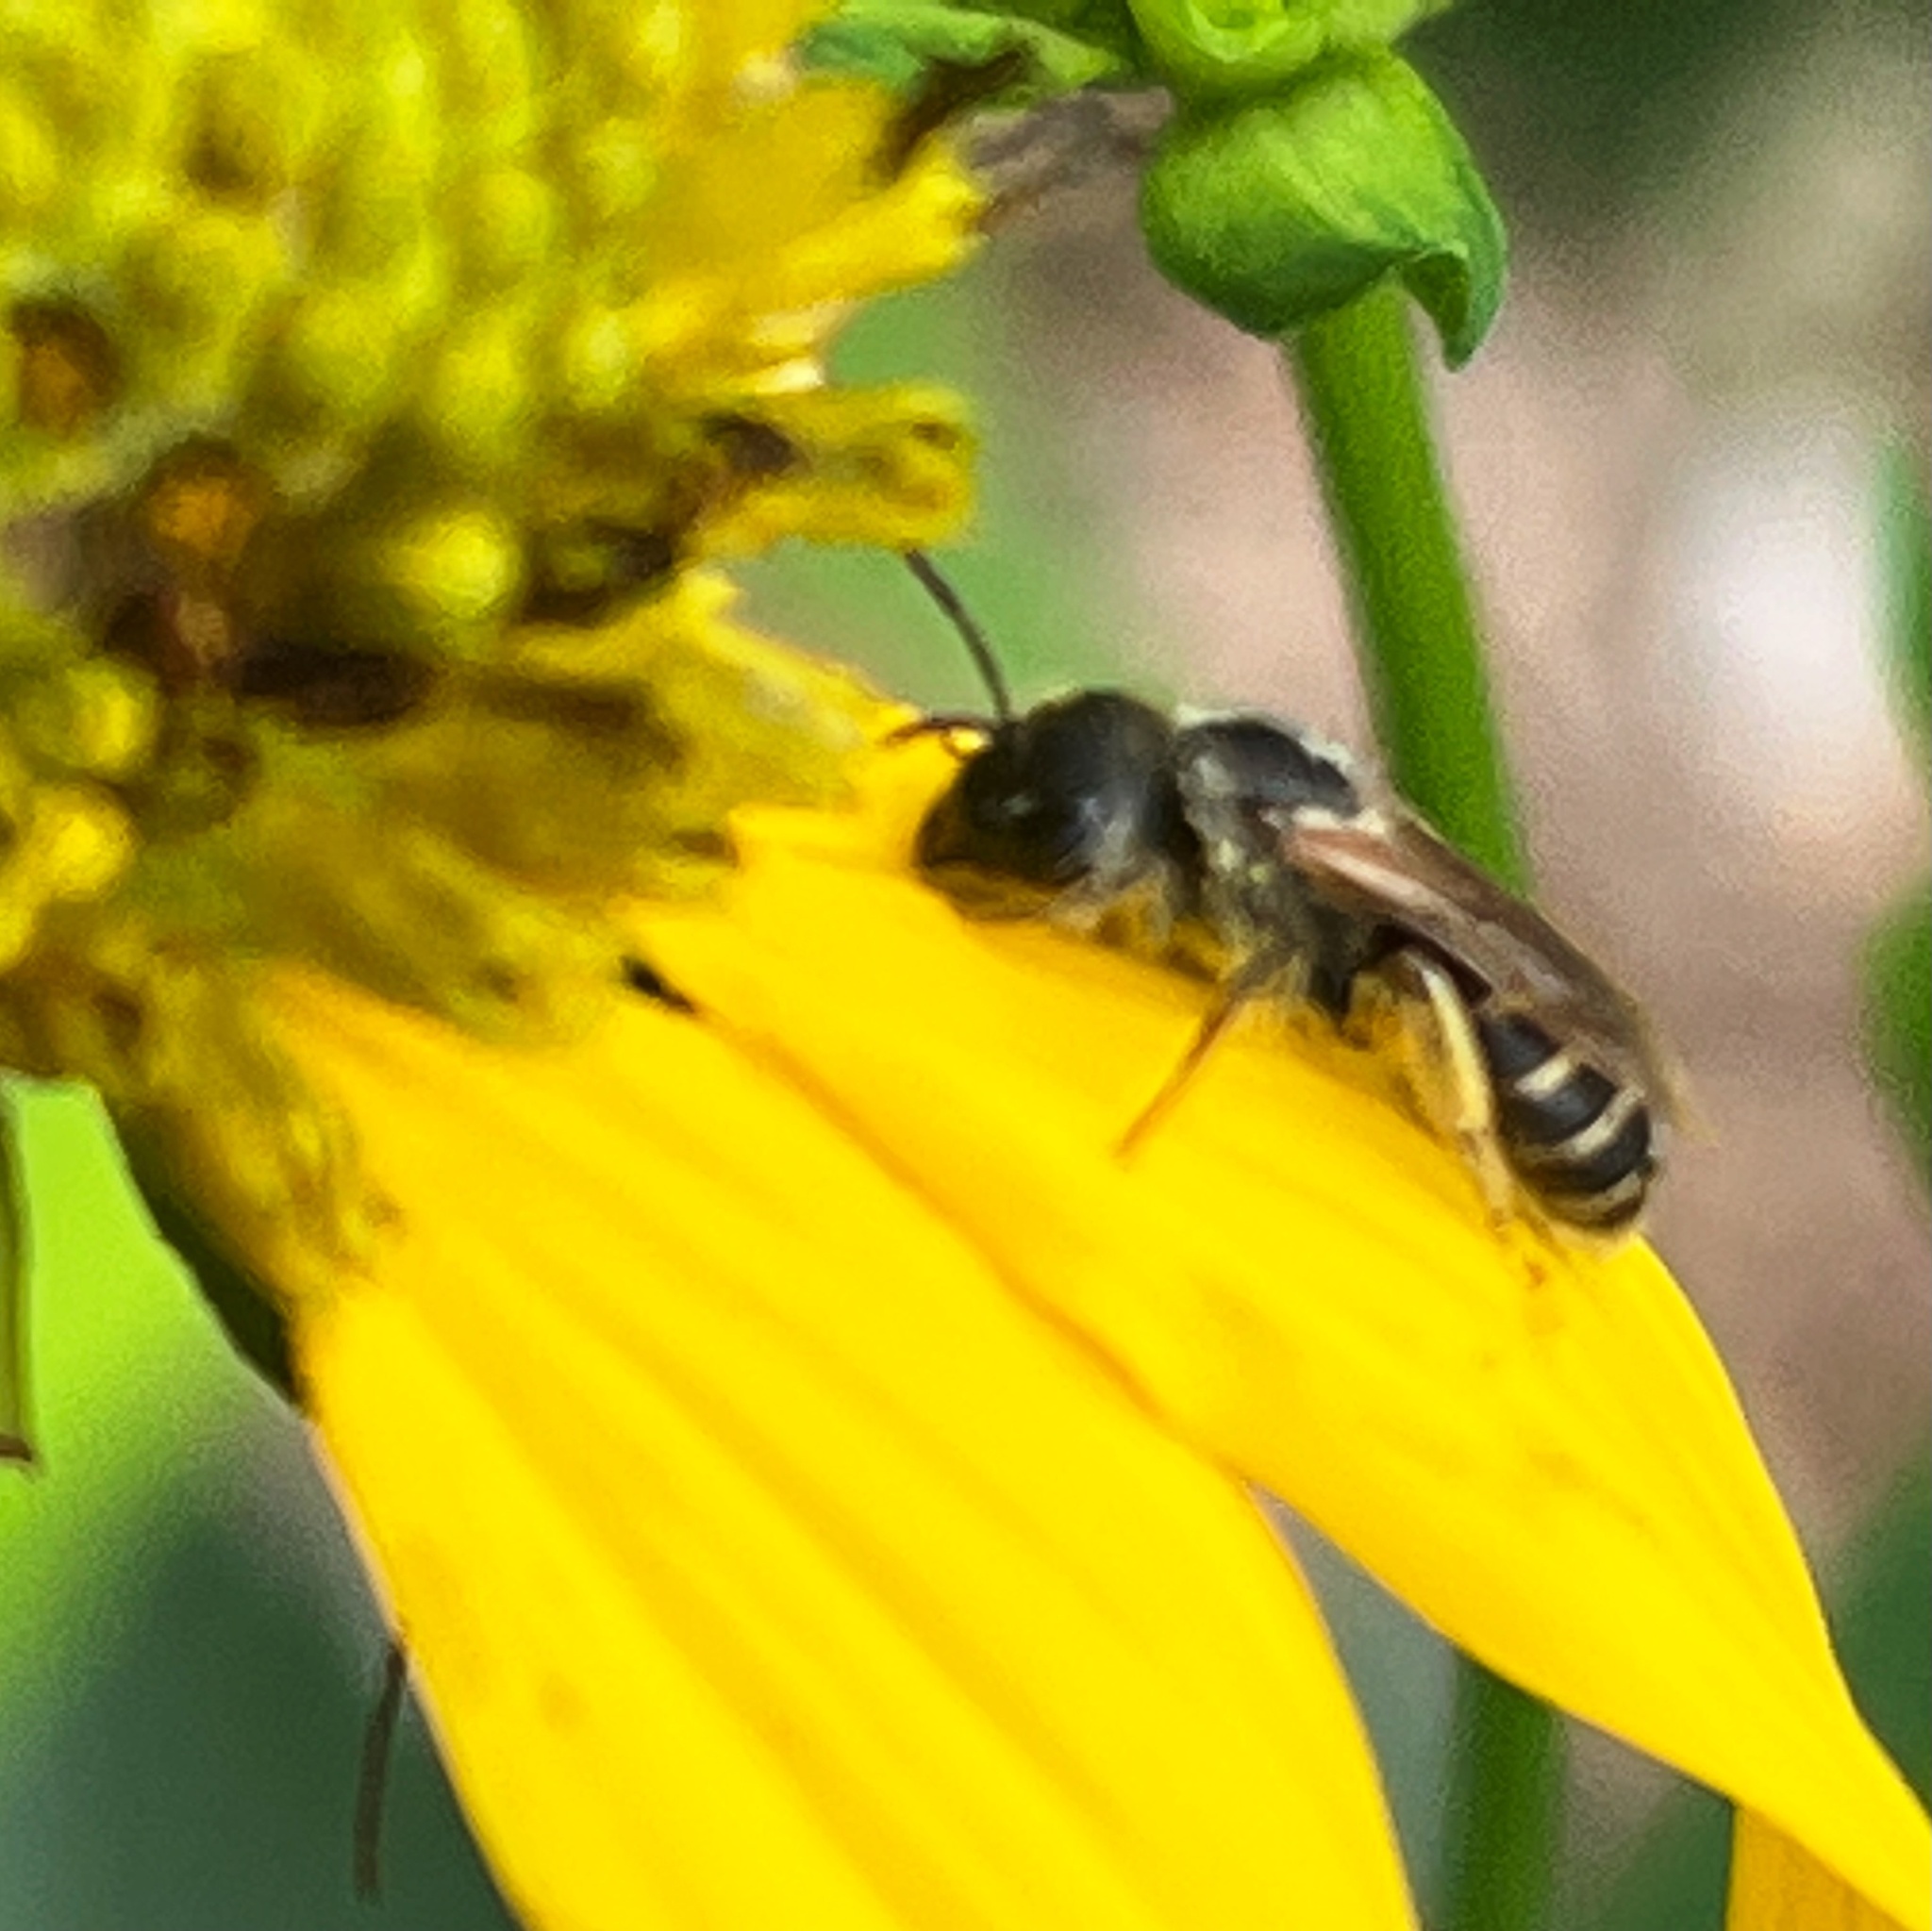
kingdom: Animalia
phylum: Arthropoda
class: Insecta
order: Hymenoptera
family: Halictidae
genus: Halictus
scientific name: Halictus ligatus
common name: Ligated furrow bee
